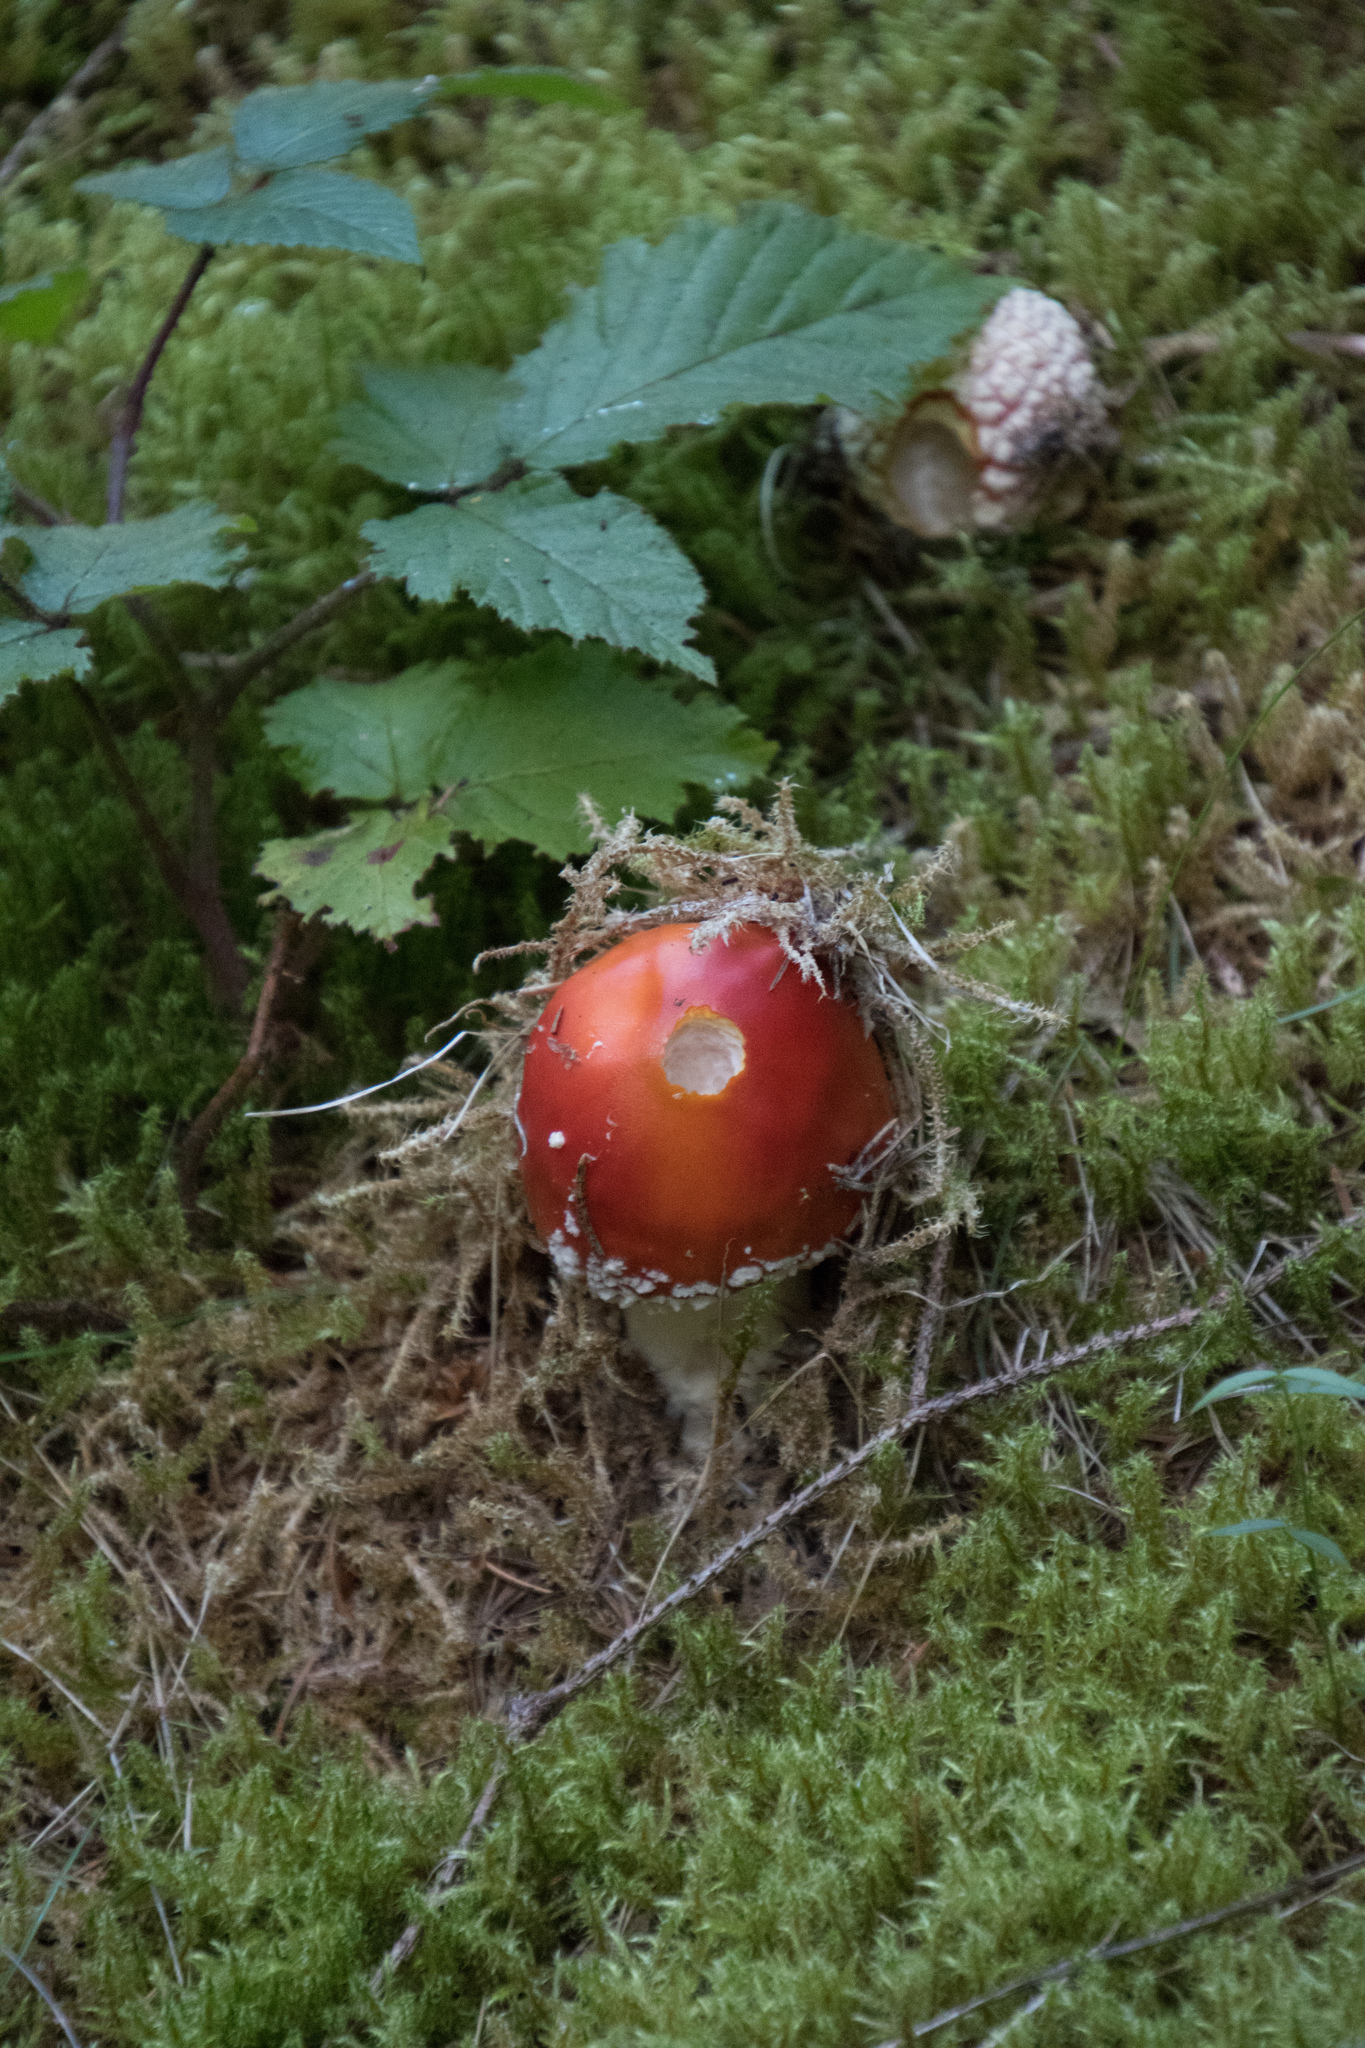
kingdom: Fungi
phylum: Basidiomycota
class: Agaricomycetes
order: Agaricales
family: Amanitaceae
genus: Amanita
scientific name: Amanita muscaria
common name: Fly agaric
